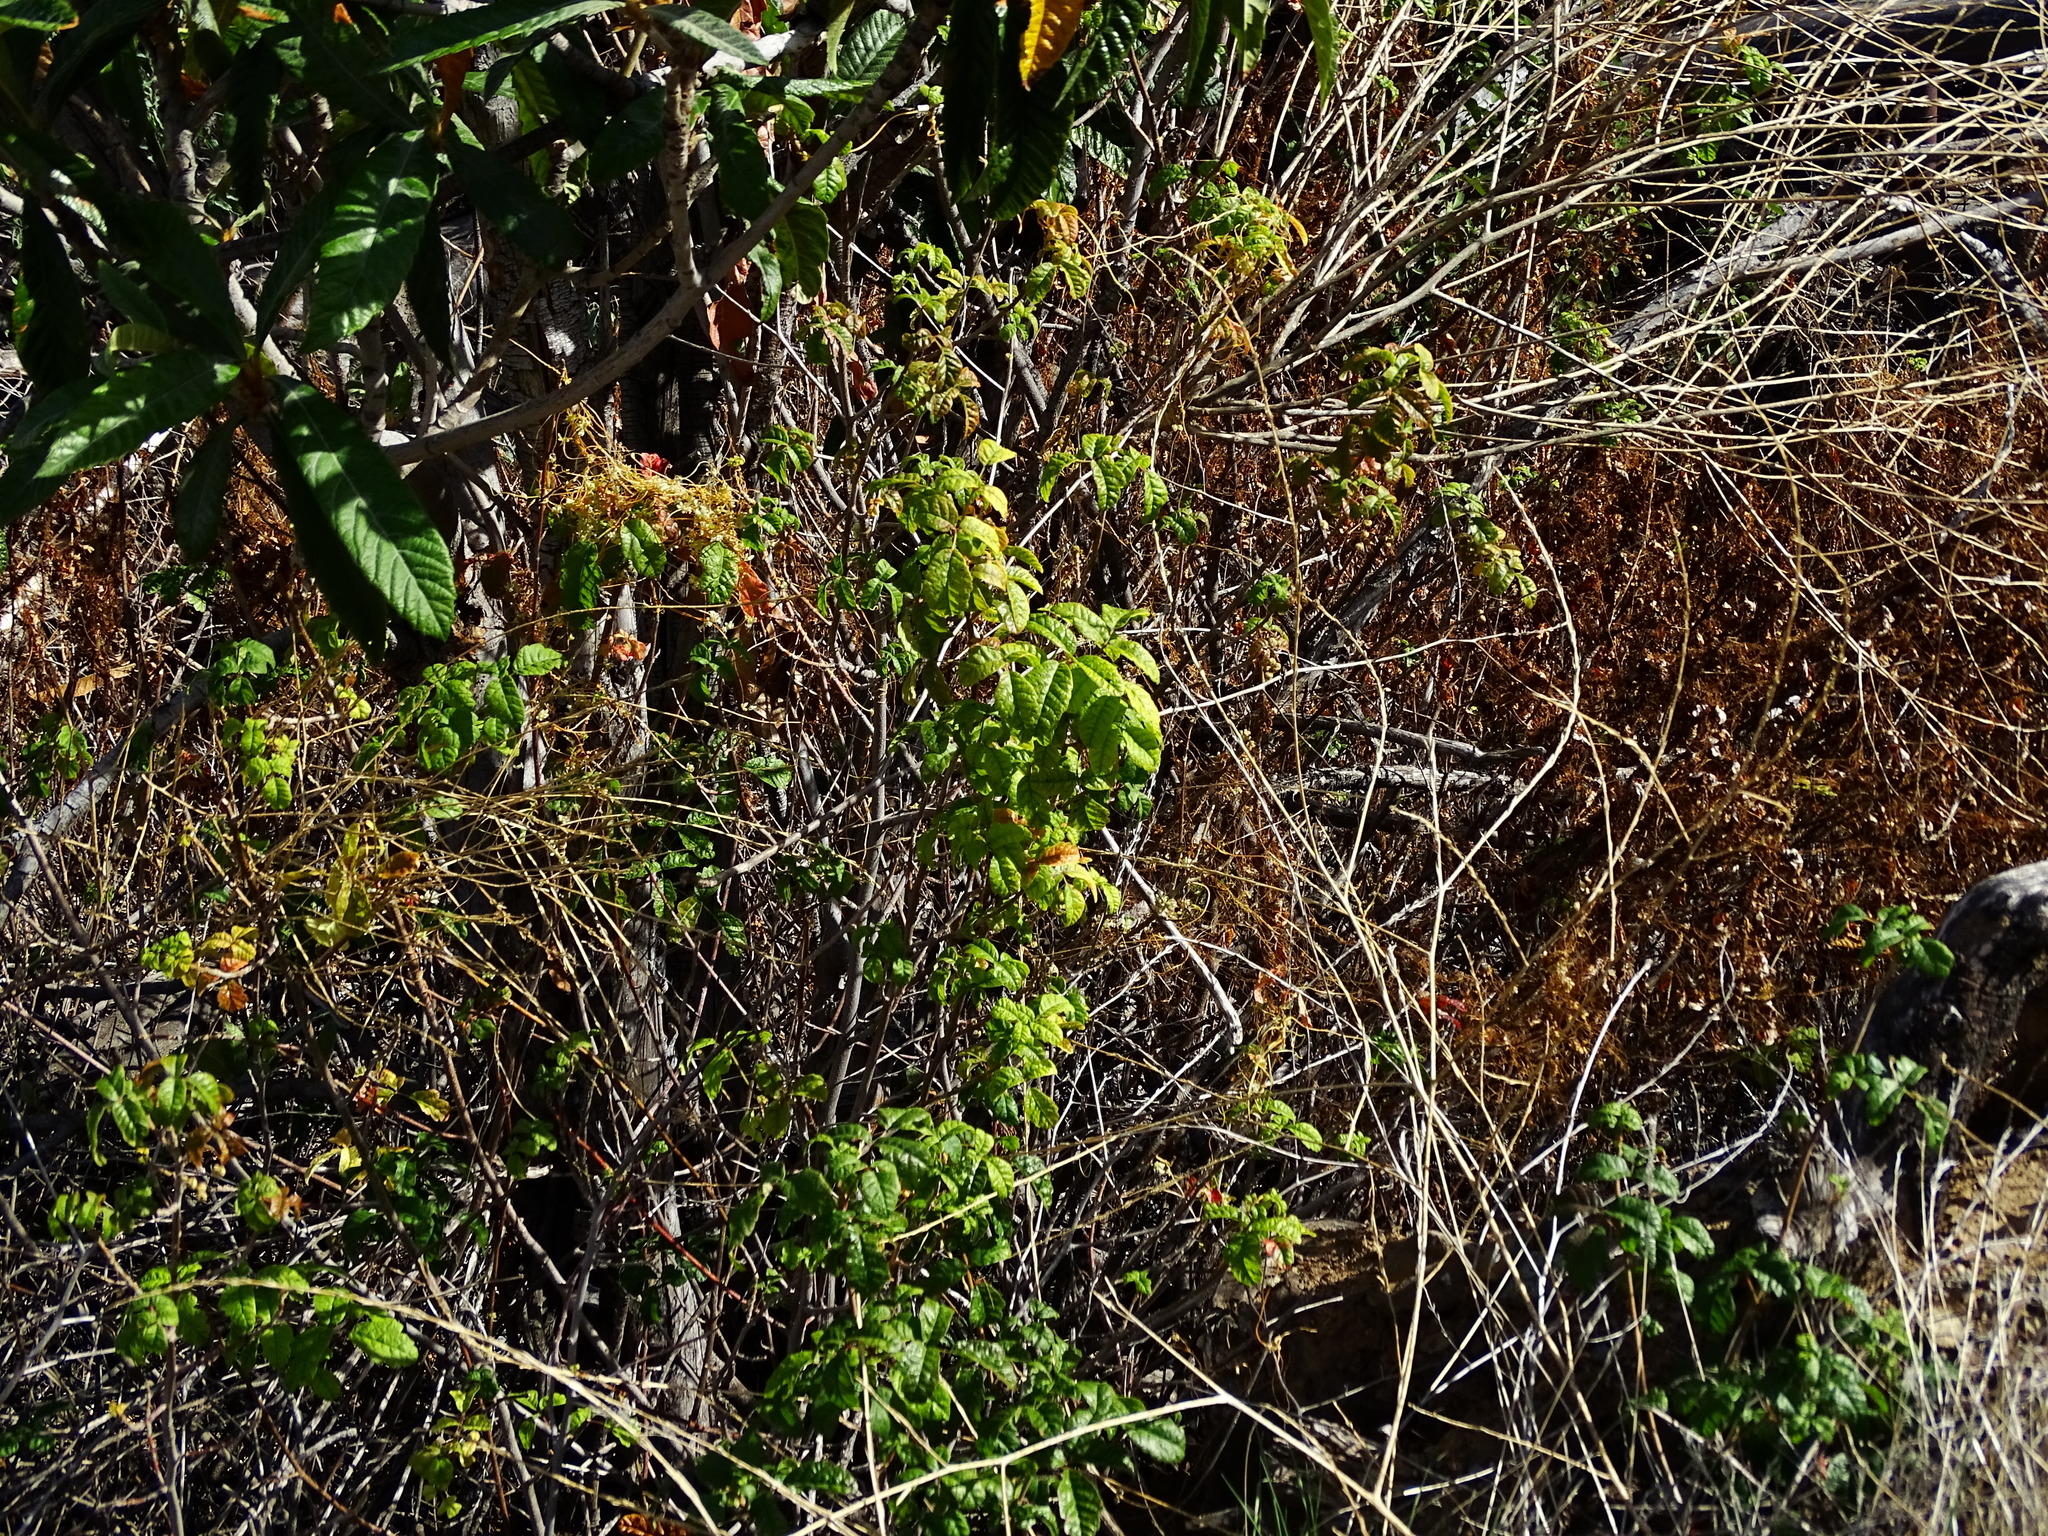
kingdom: Plantae
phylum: Tracheophyta
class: Magnoliopsida
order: Sapindales
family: Anacardiaceae
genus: Toxicodendron
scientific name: Toxicodendron diversilobum
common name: Pacific poison-oak
